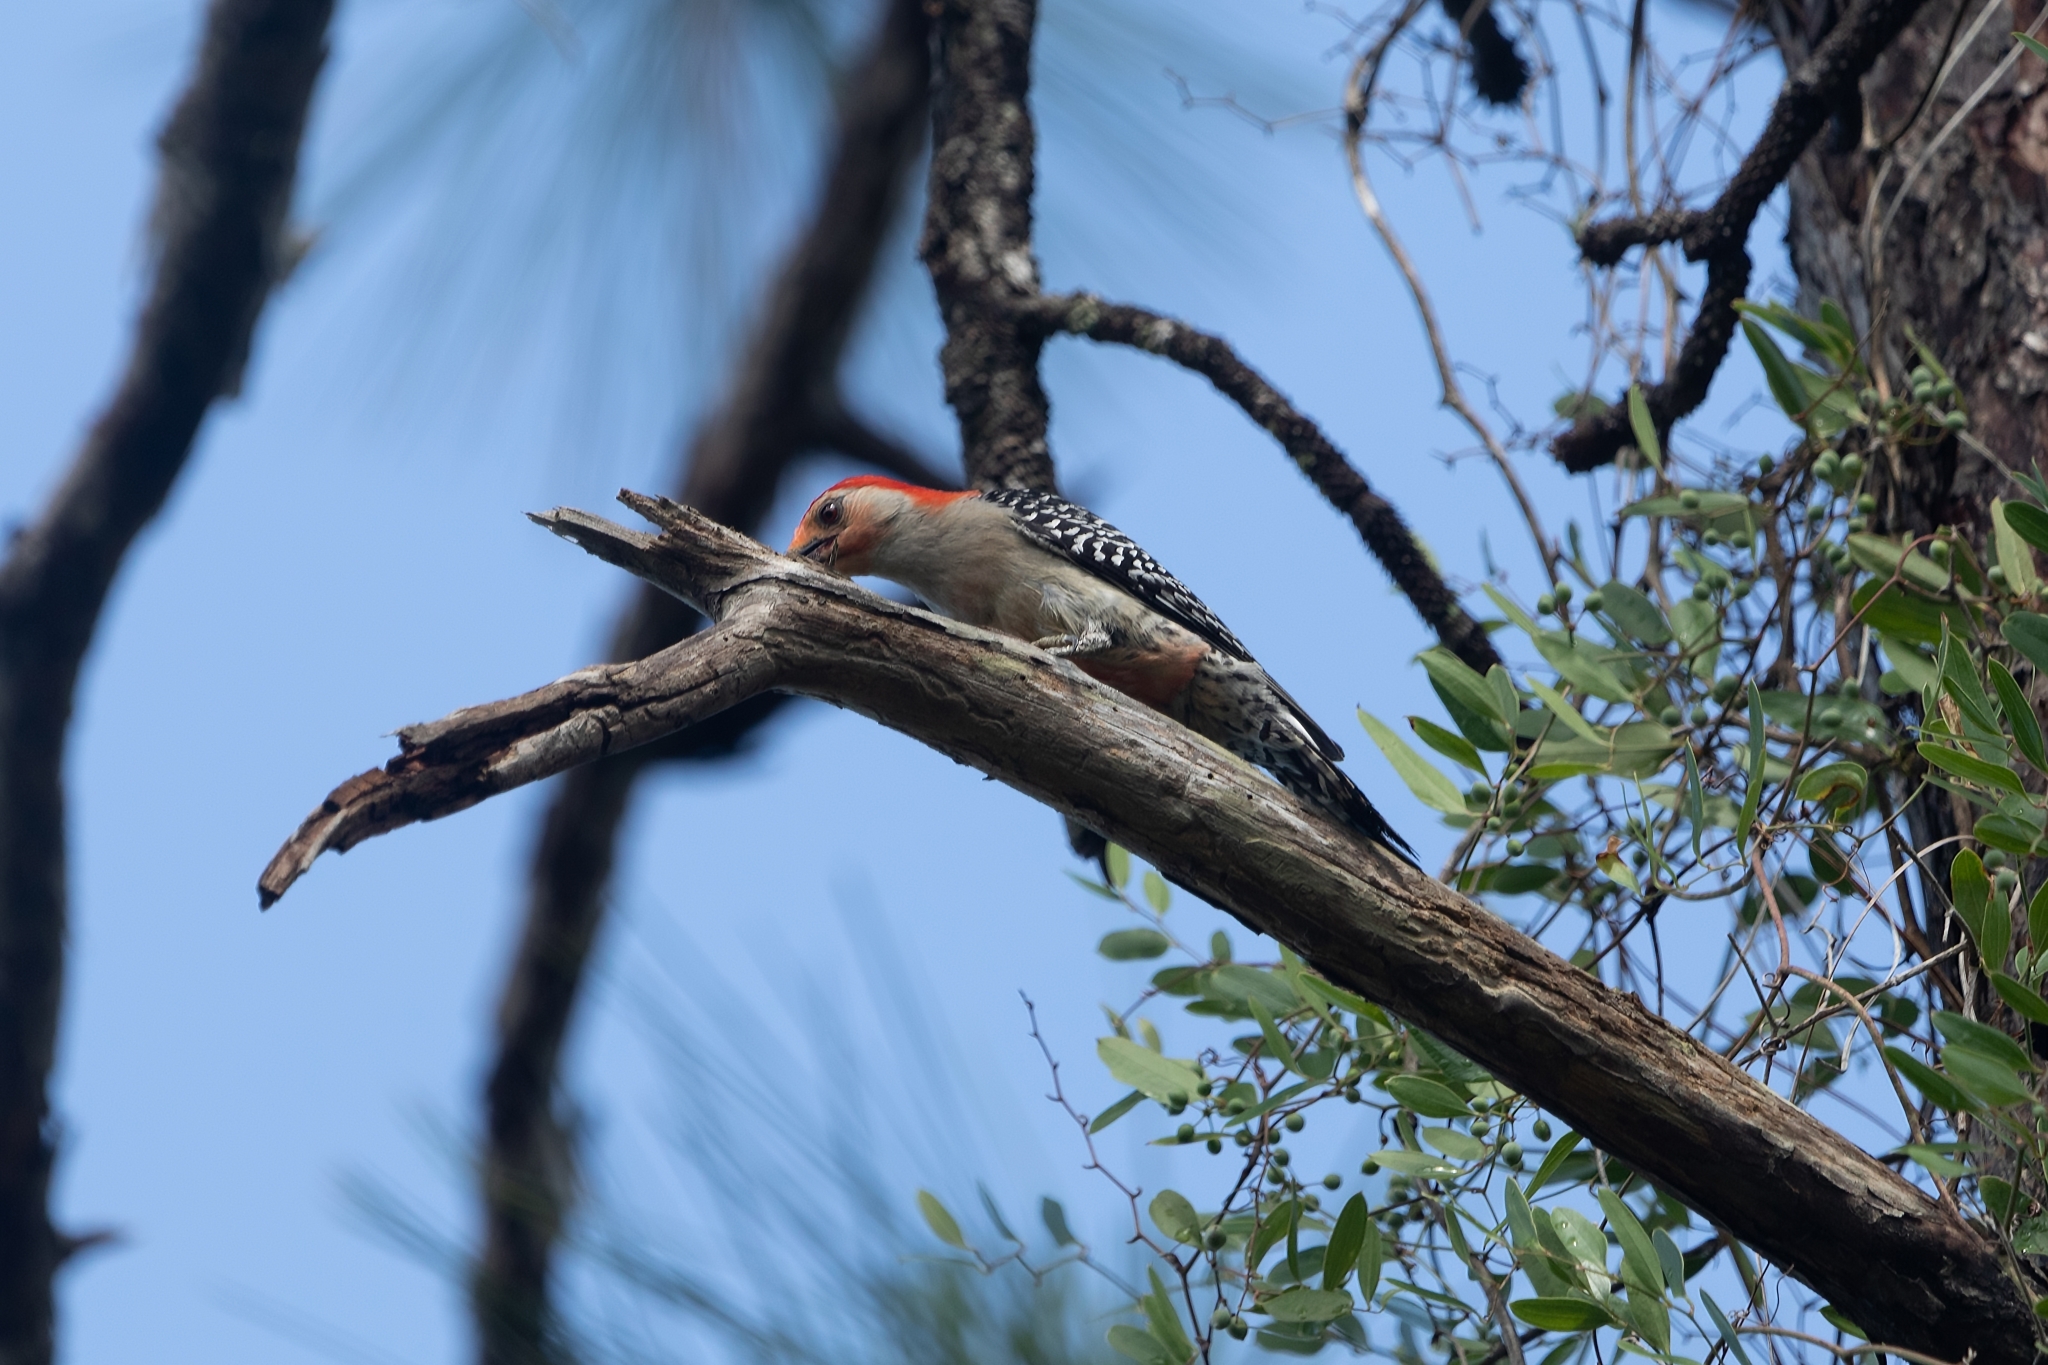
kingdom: Animalia
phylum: Chordata
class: Aves
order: Piciformes
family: Picidae
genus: Melanerpes
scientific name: Melanerpes carolinus
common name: Red-bellied woodpecker
